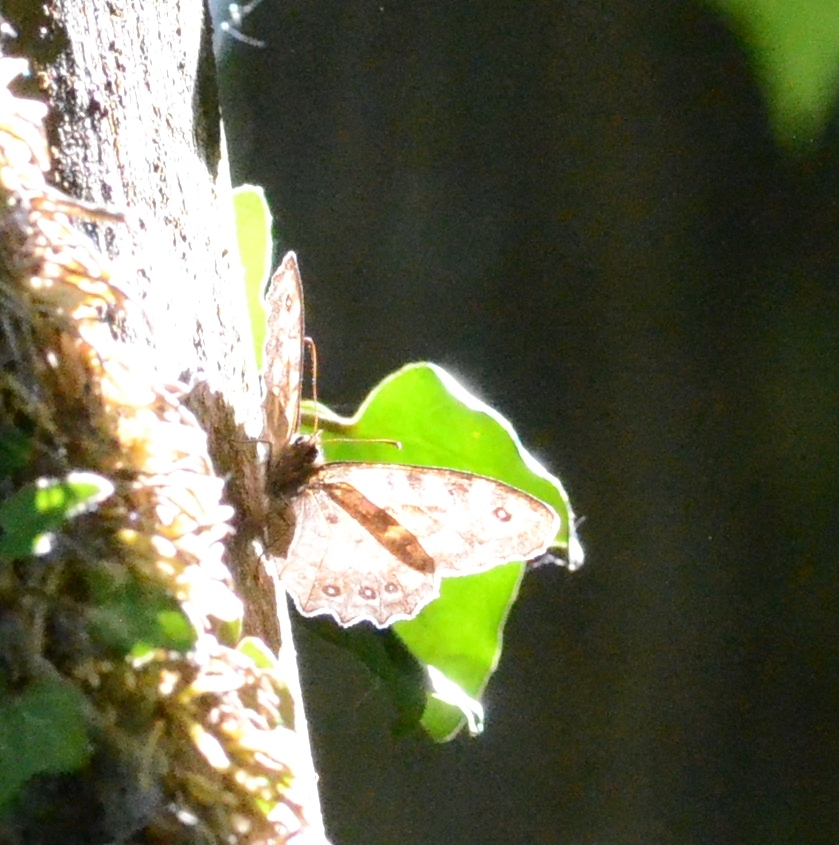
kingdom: Animalia
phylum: Arthropoda
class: Insecta
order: Lepidoptera
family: Nymphalidae
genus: Pararge
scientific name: Pararge aegeria
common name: Speckled wood
